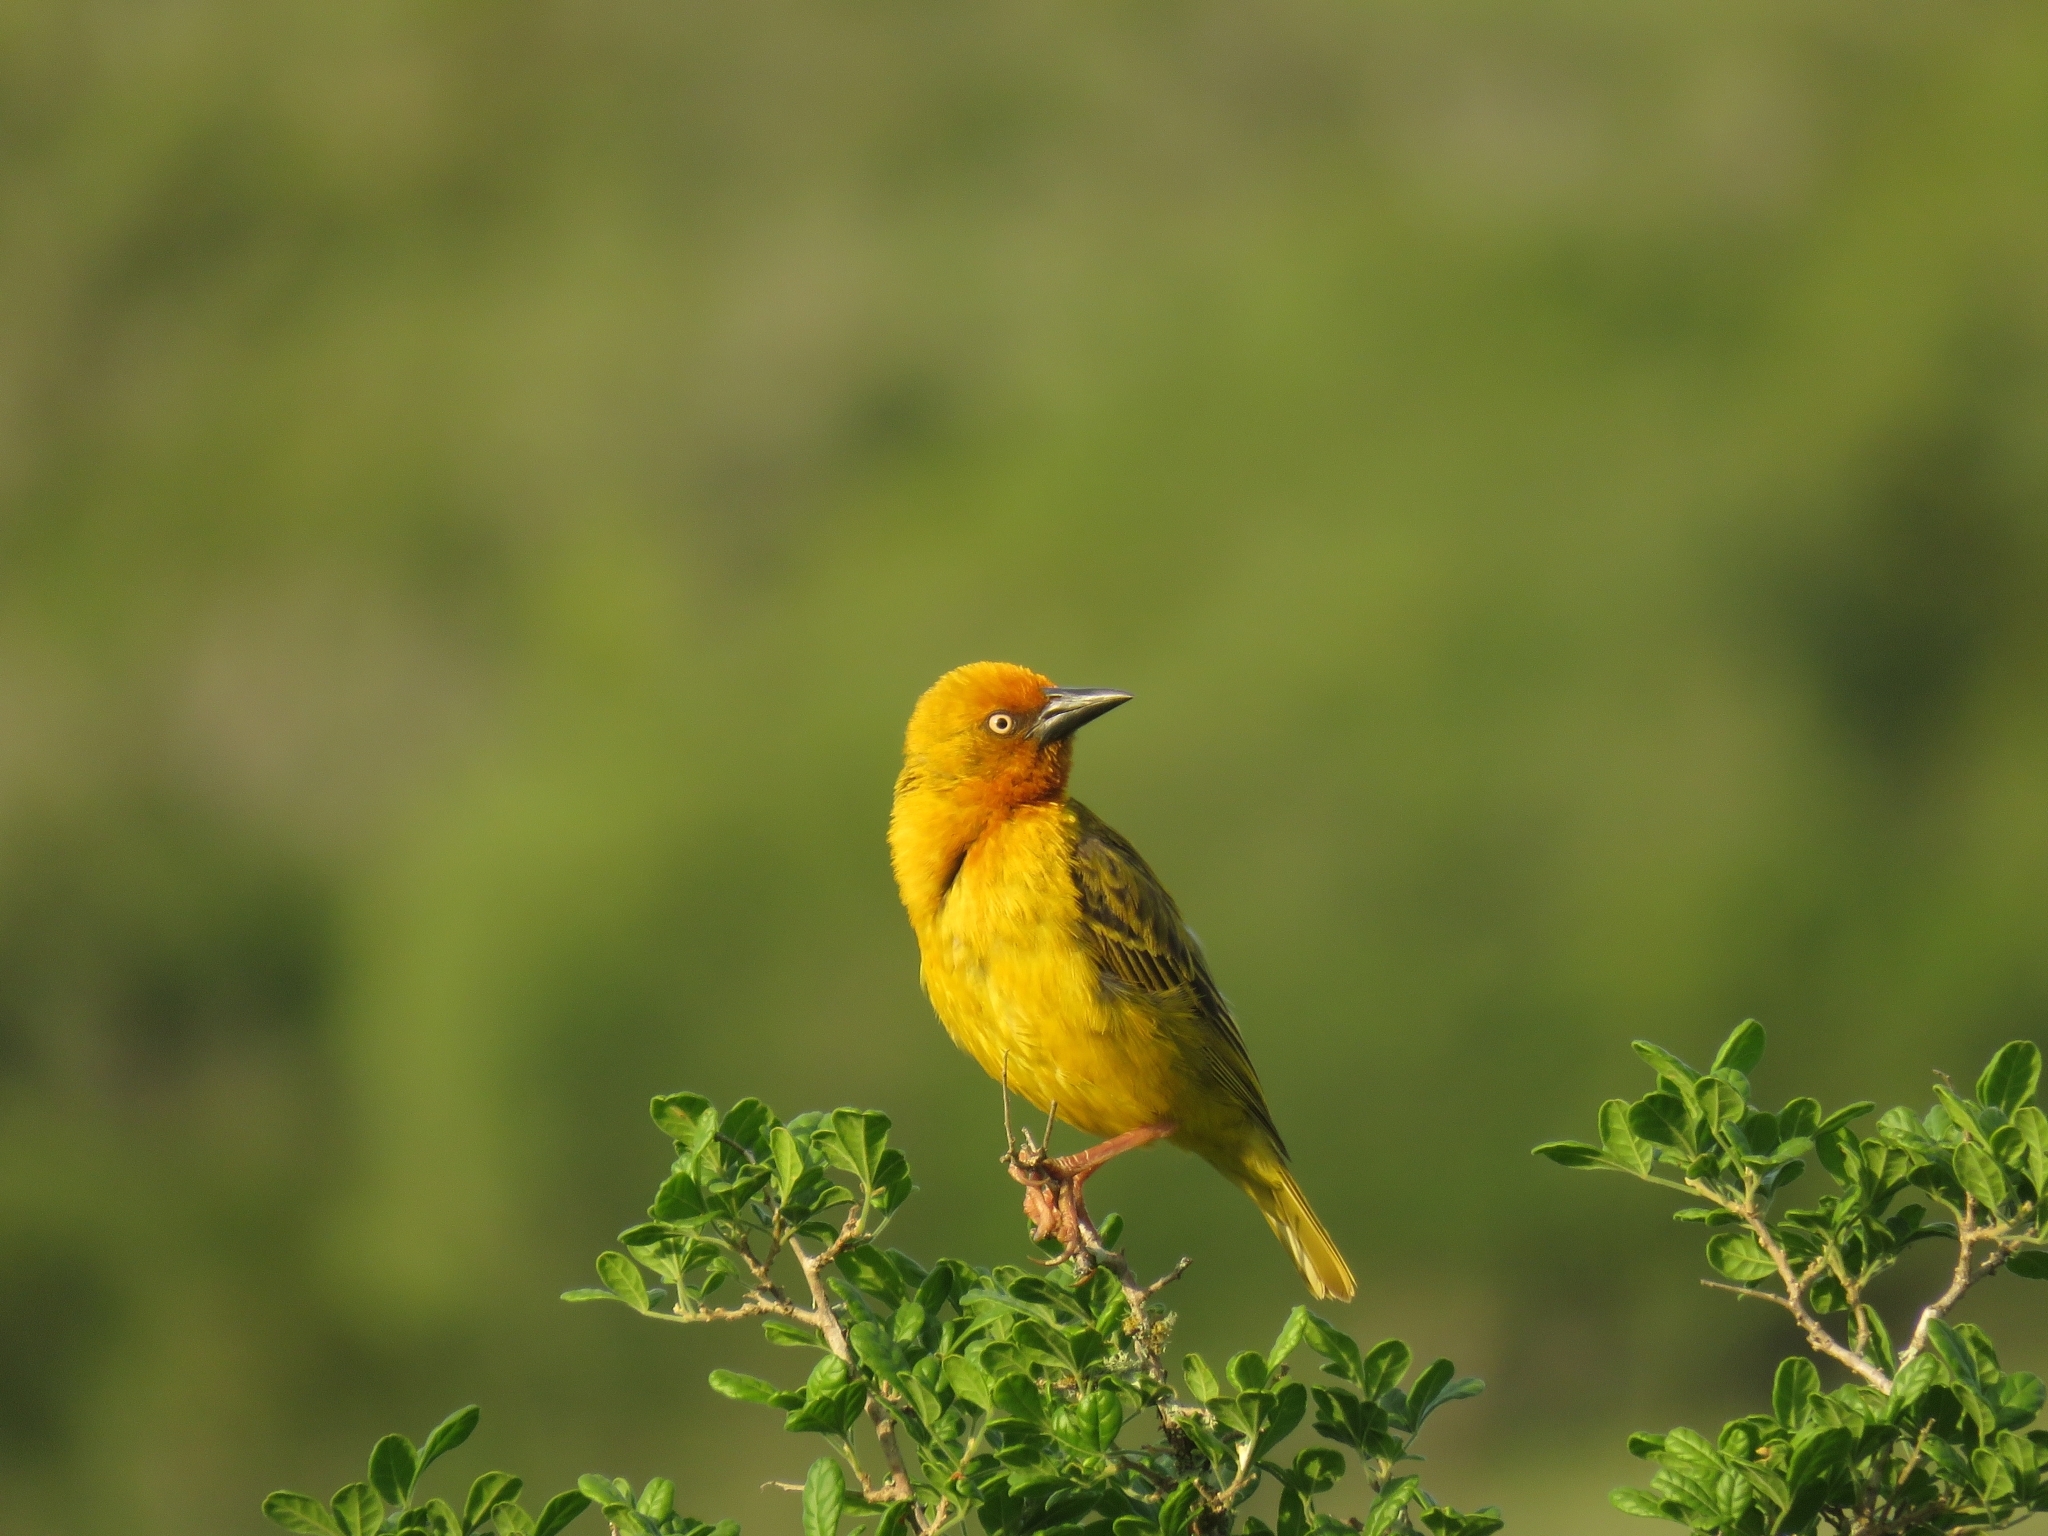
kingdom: Animalia
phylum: Chordata
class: Aves
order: Passeriformes
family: Ploceidae
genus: Ploceus
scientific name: Ploceus capensis
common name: Cape weaver
